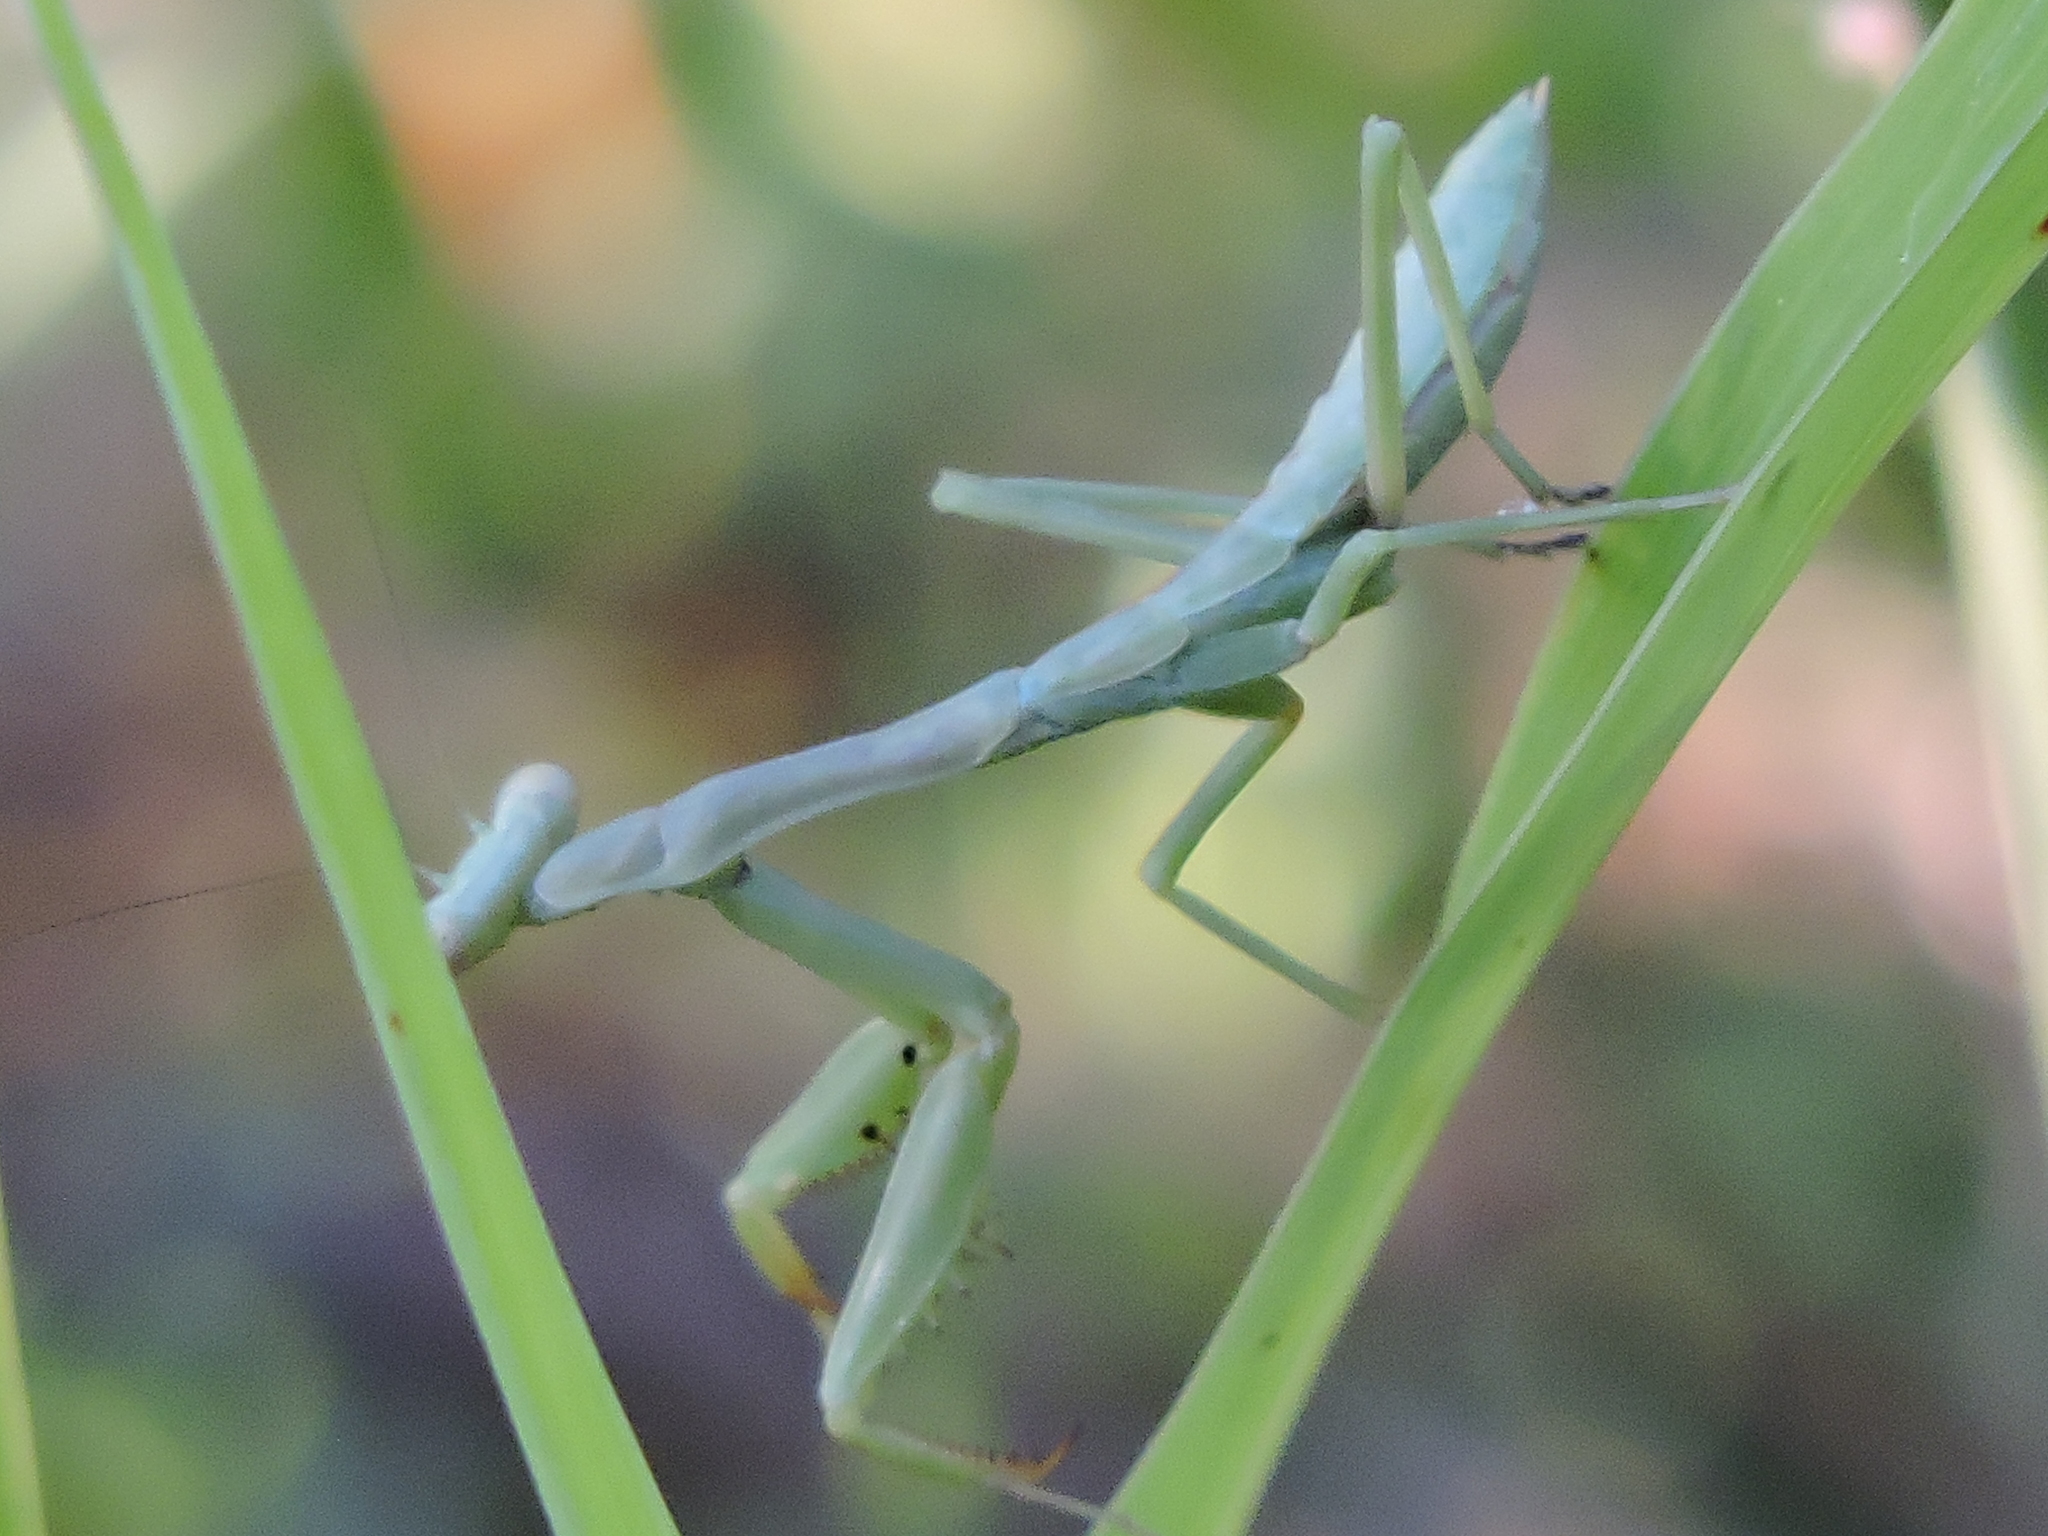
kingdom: Animalia
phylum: Arthropoda
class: Insecta
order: Mantodea
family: Mantidae
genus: Stagmomantis
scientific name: Stagmomantis carolina
